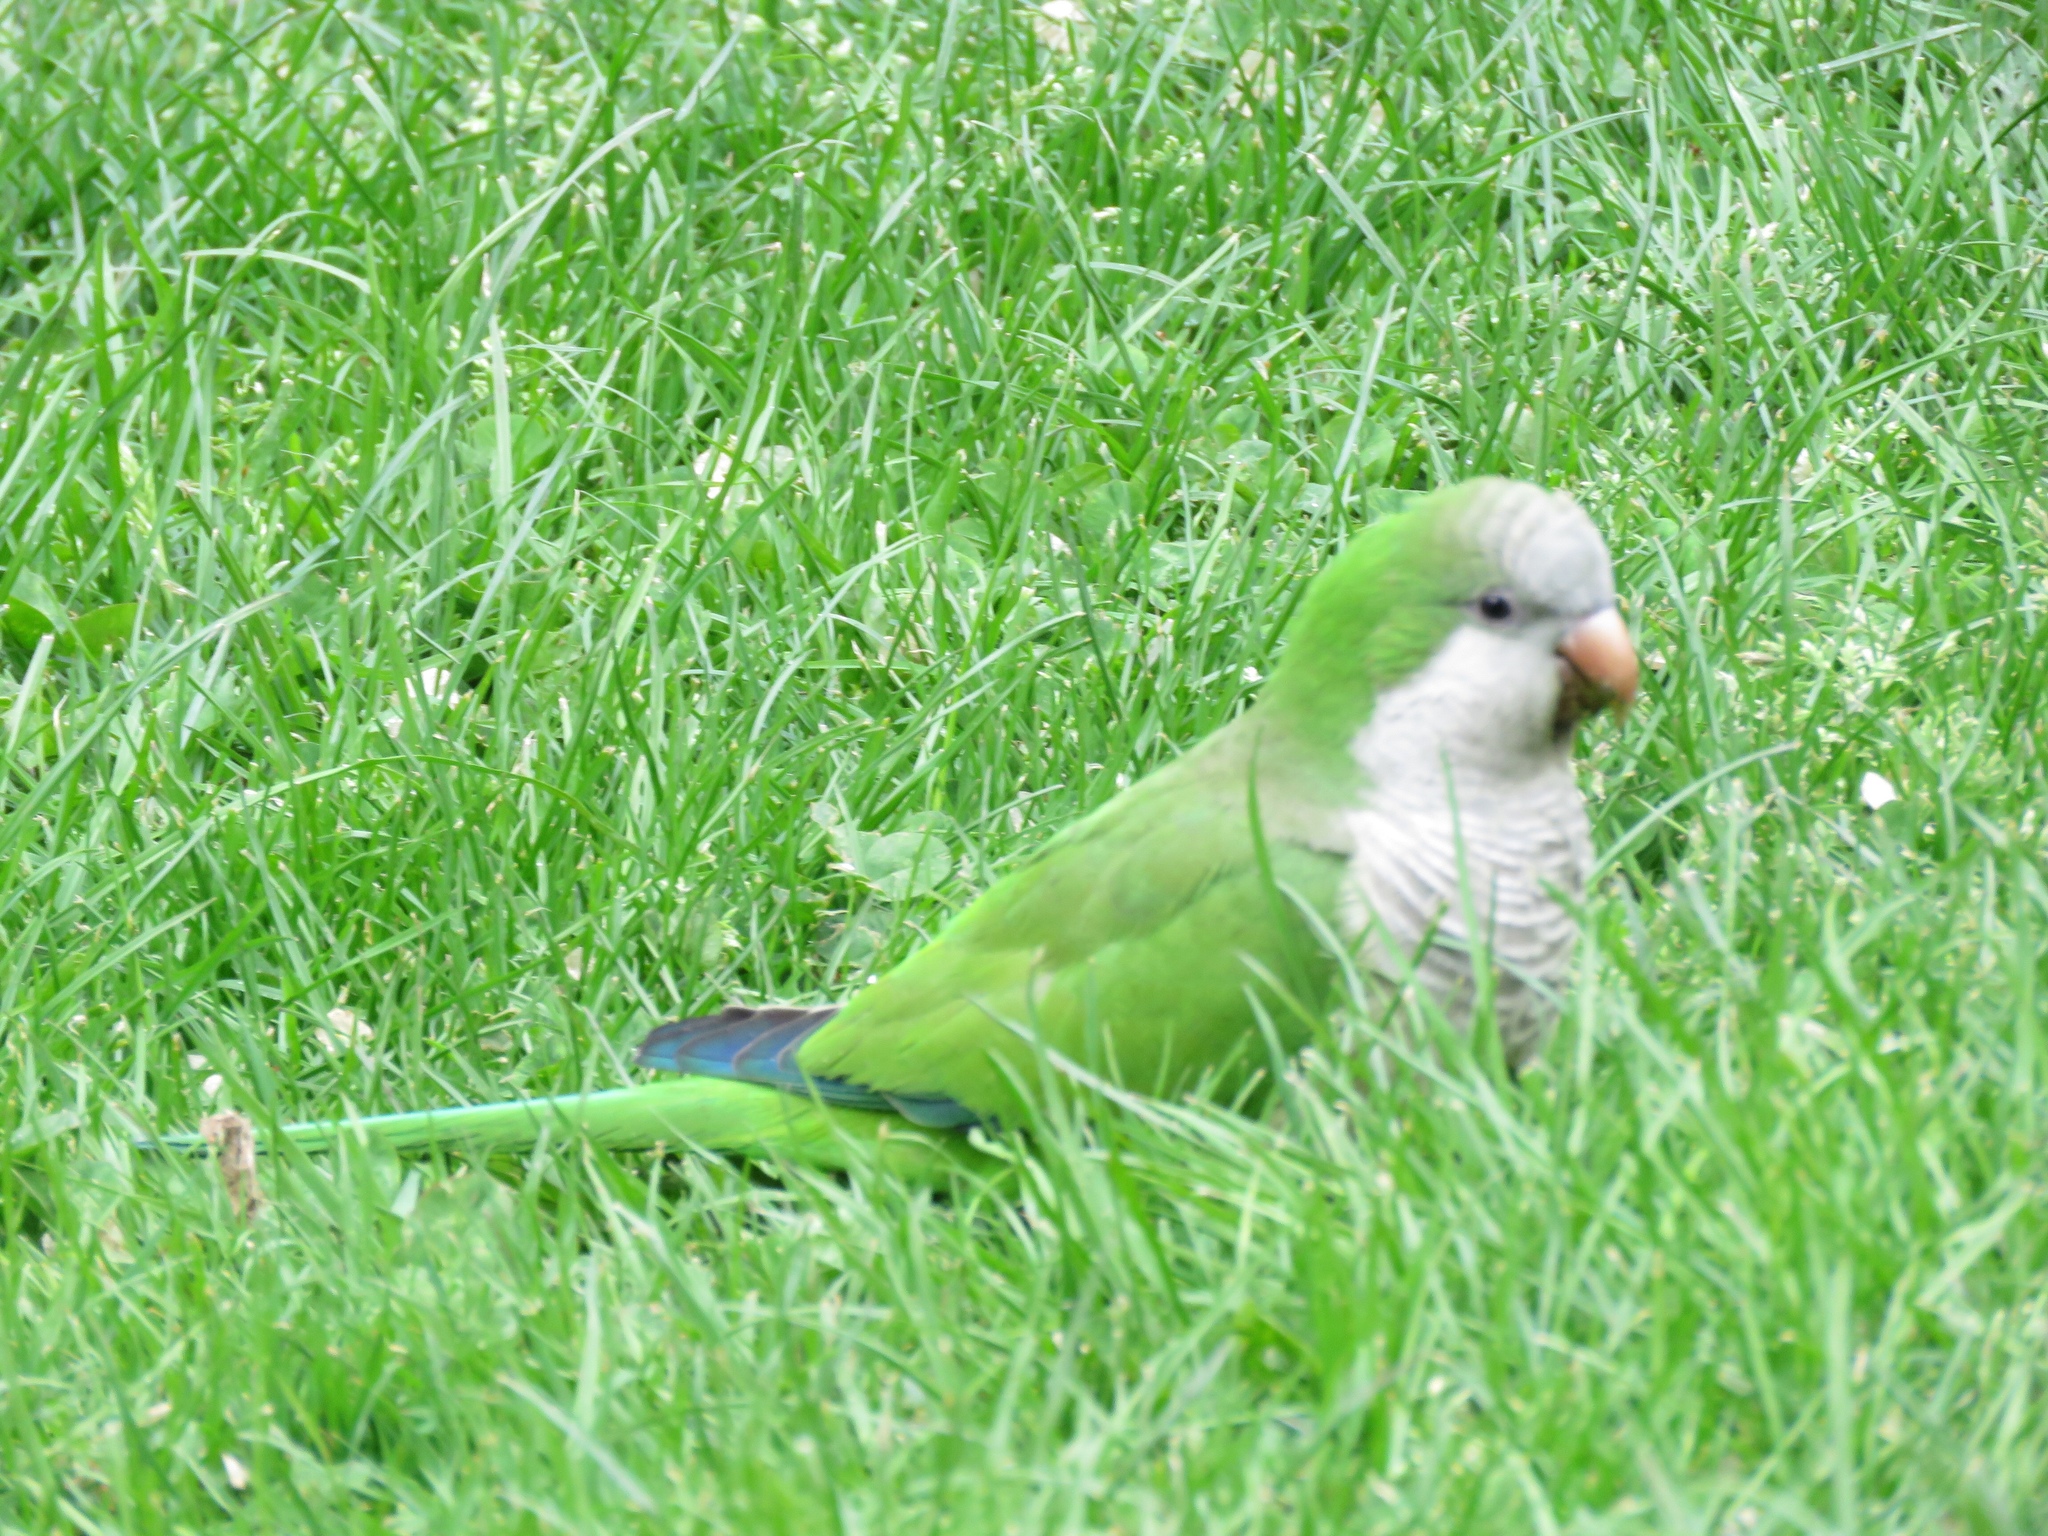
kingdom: Animalia
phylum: Chordata
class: Aves
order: Psittaciformes
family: Psittacidae
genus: Myiopsitta
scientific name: Myiopsitta monachus
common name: Monk parakeet
